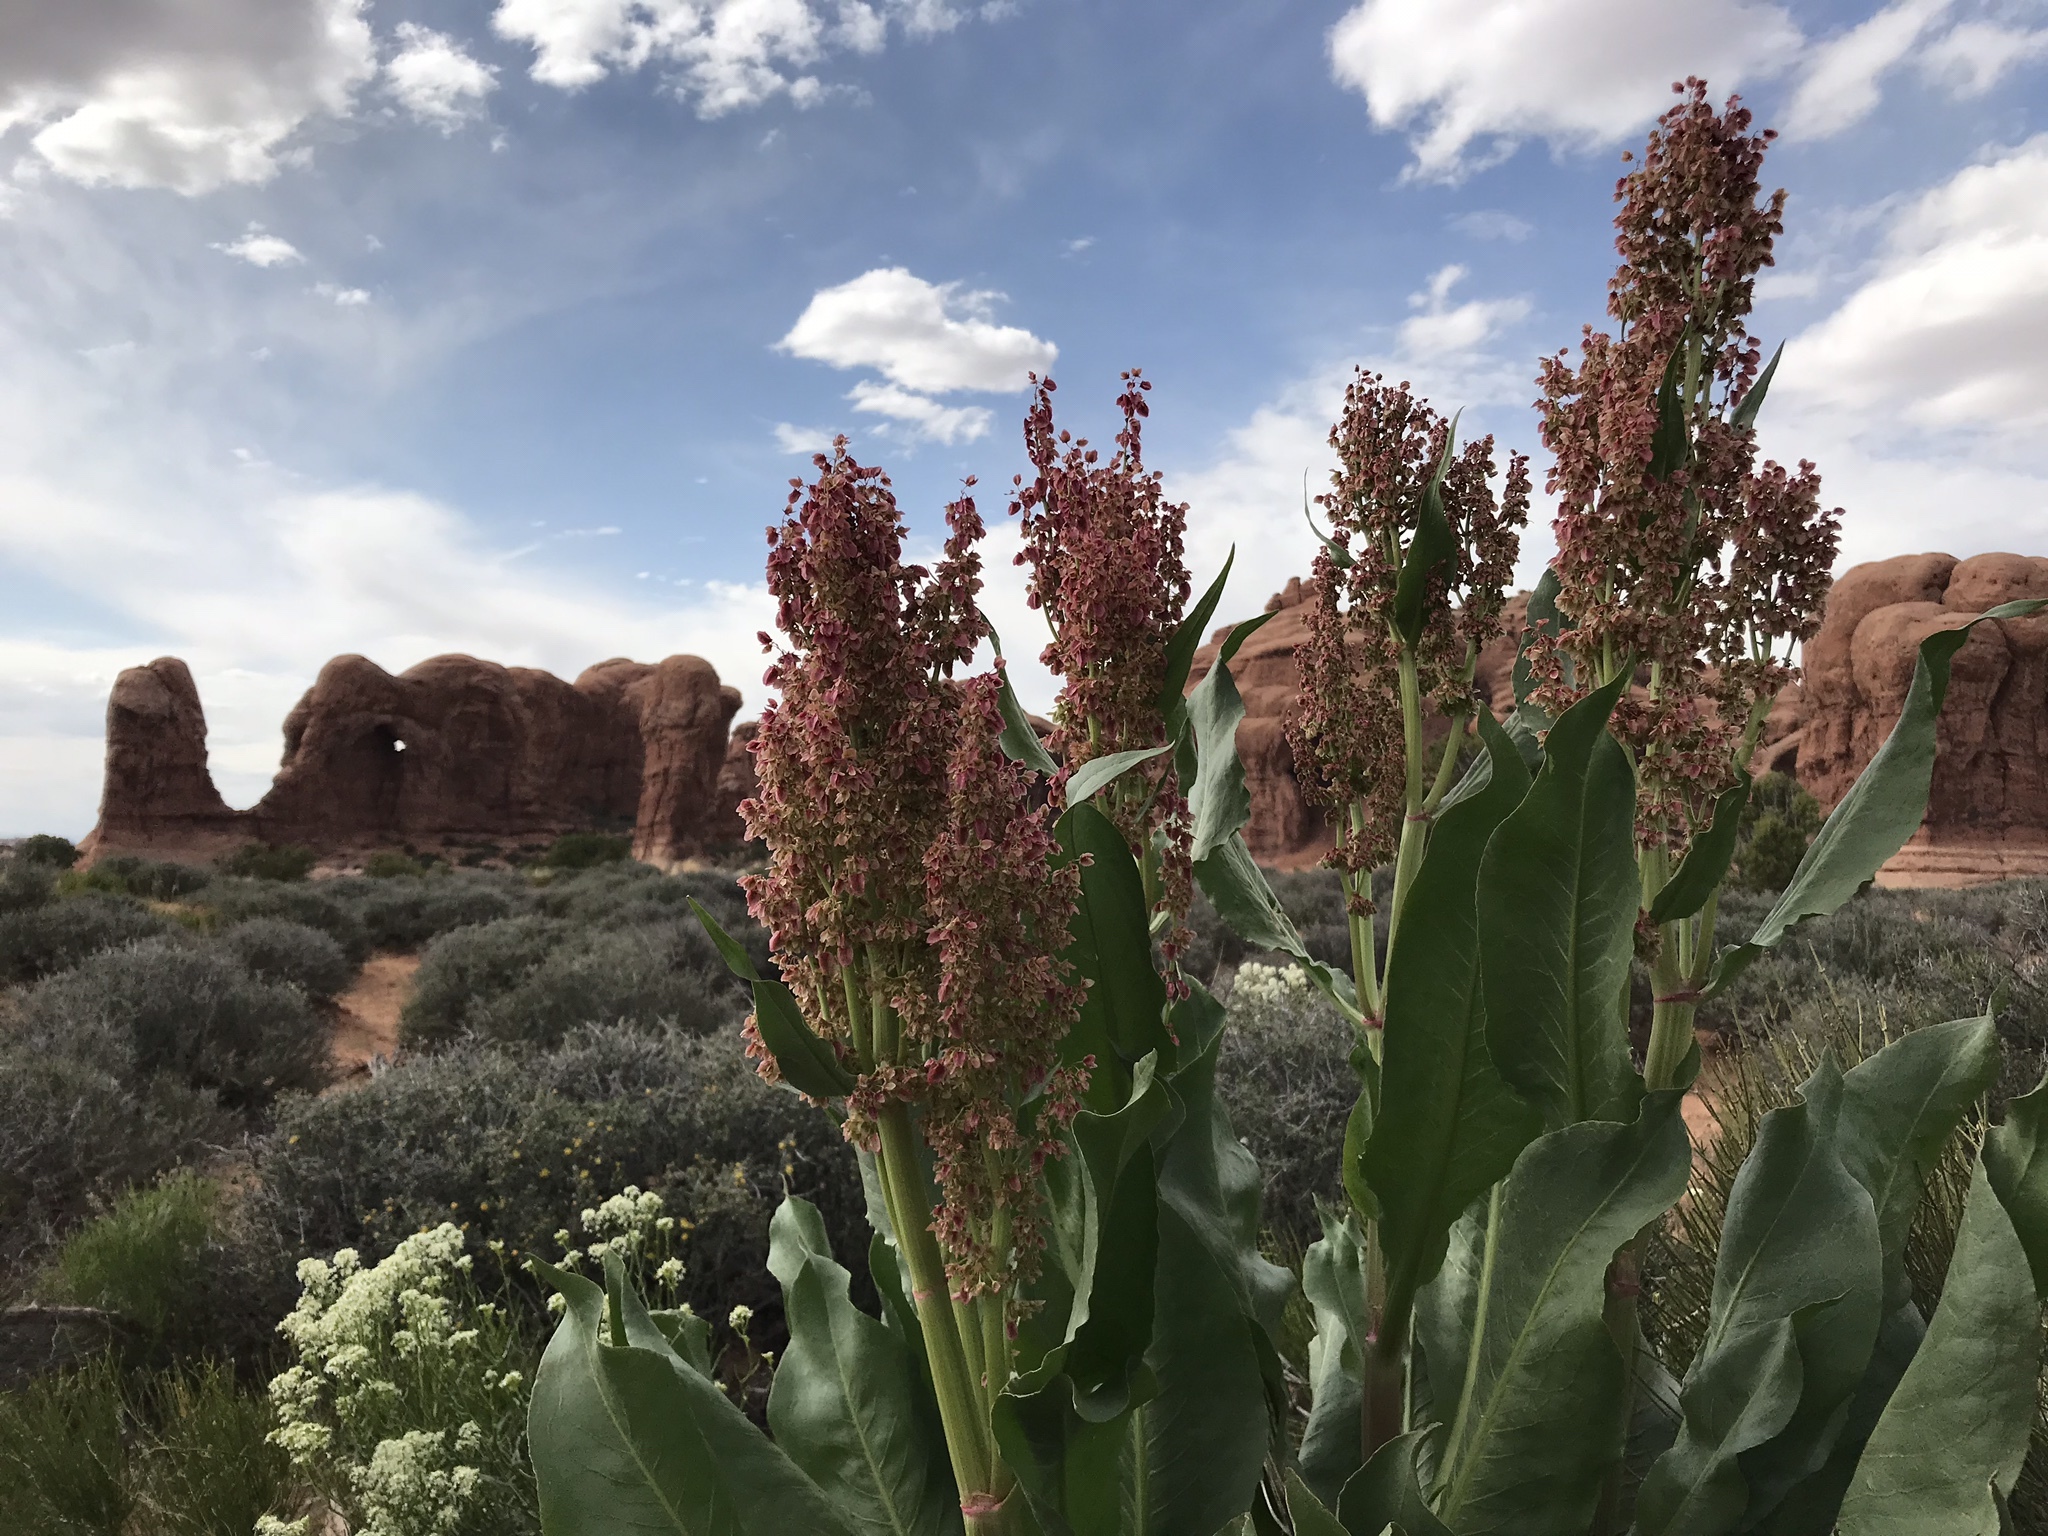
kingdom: Plantae
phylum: Tracheophyta
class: Magnoliopsida
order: Caryophyllales
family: Polygonaceae
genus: Rumex
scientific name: Rumex hymenosepalus
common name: Ganagra
